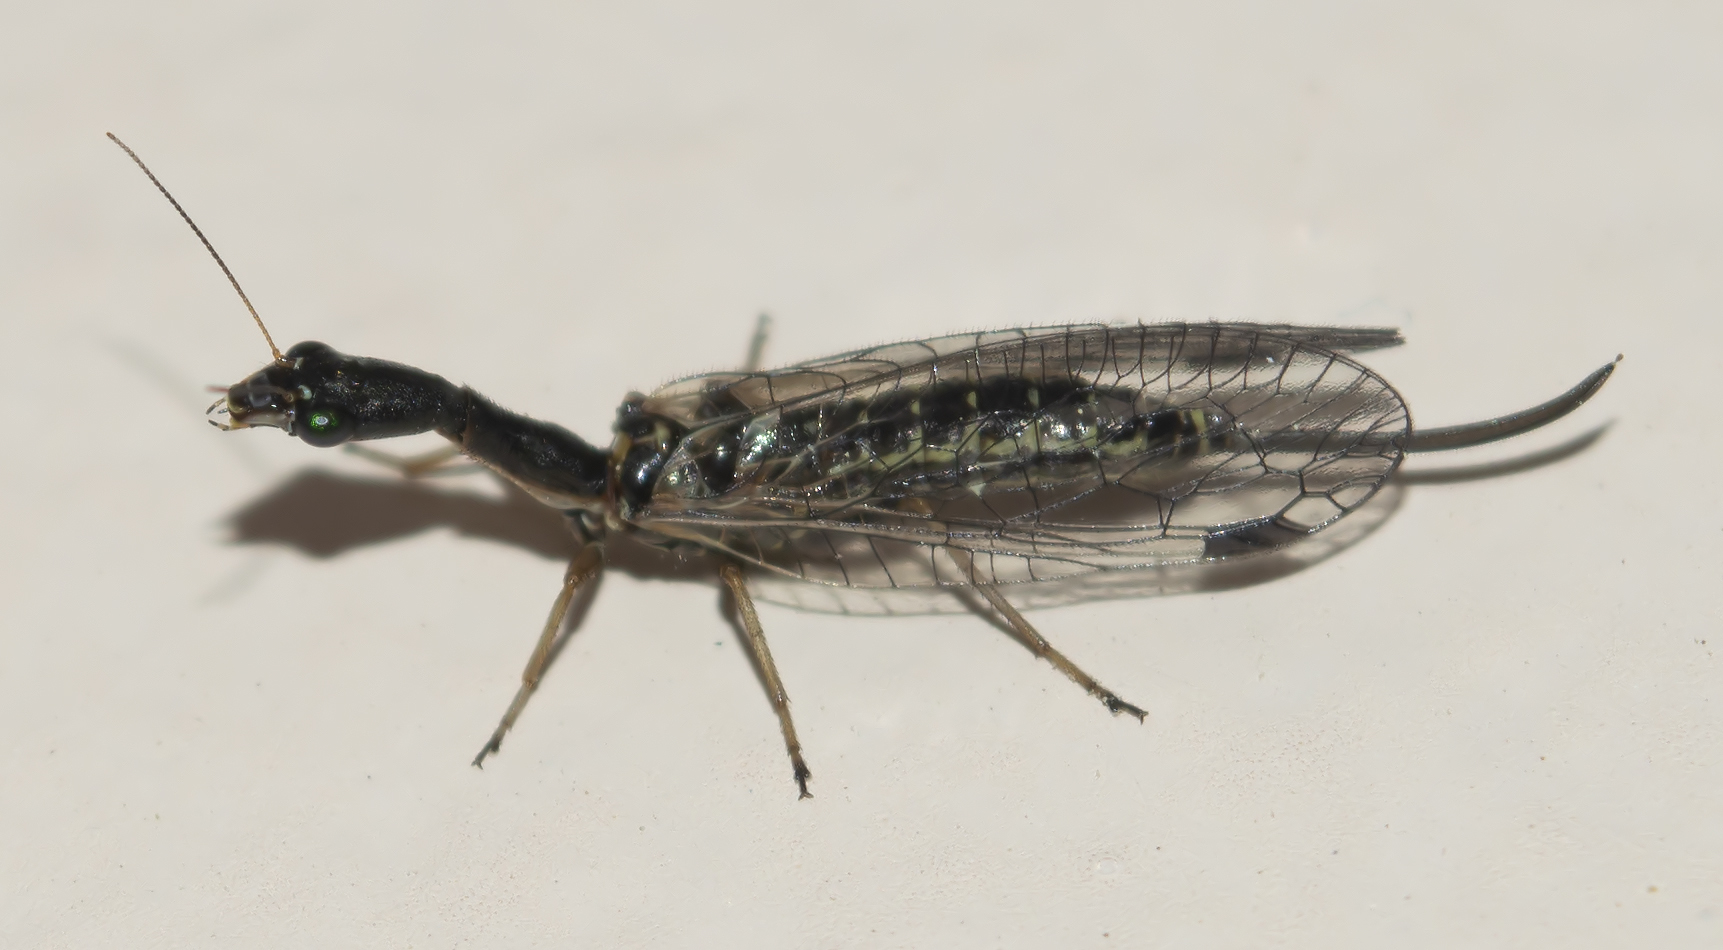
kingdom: Animalia
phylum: Arthropoda
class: Insecta
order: Raphidioptera
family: Raphidiidae
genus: Raphidia
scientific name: Raphidia mediterranea
